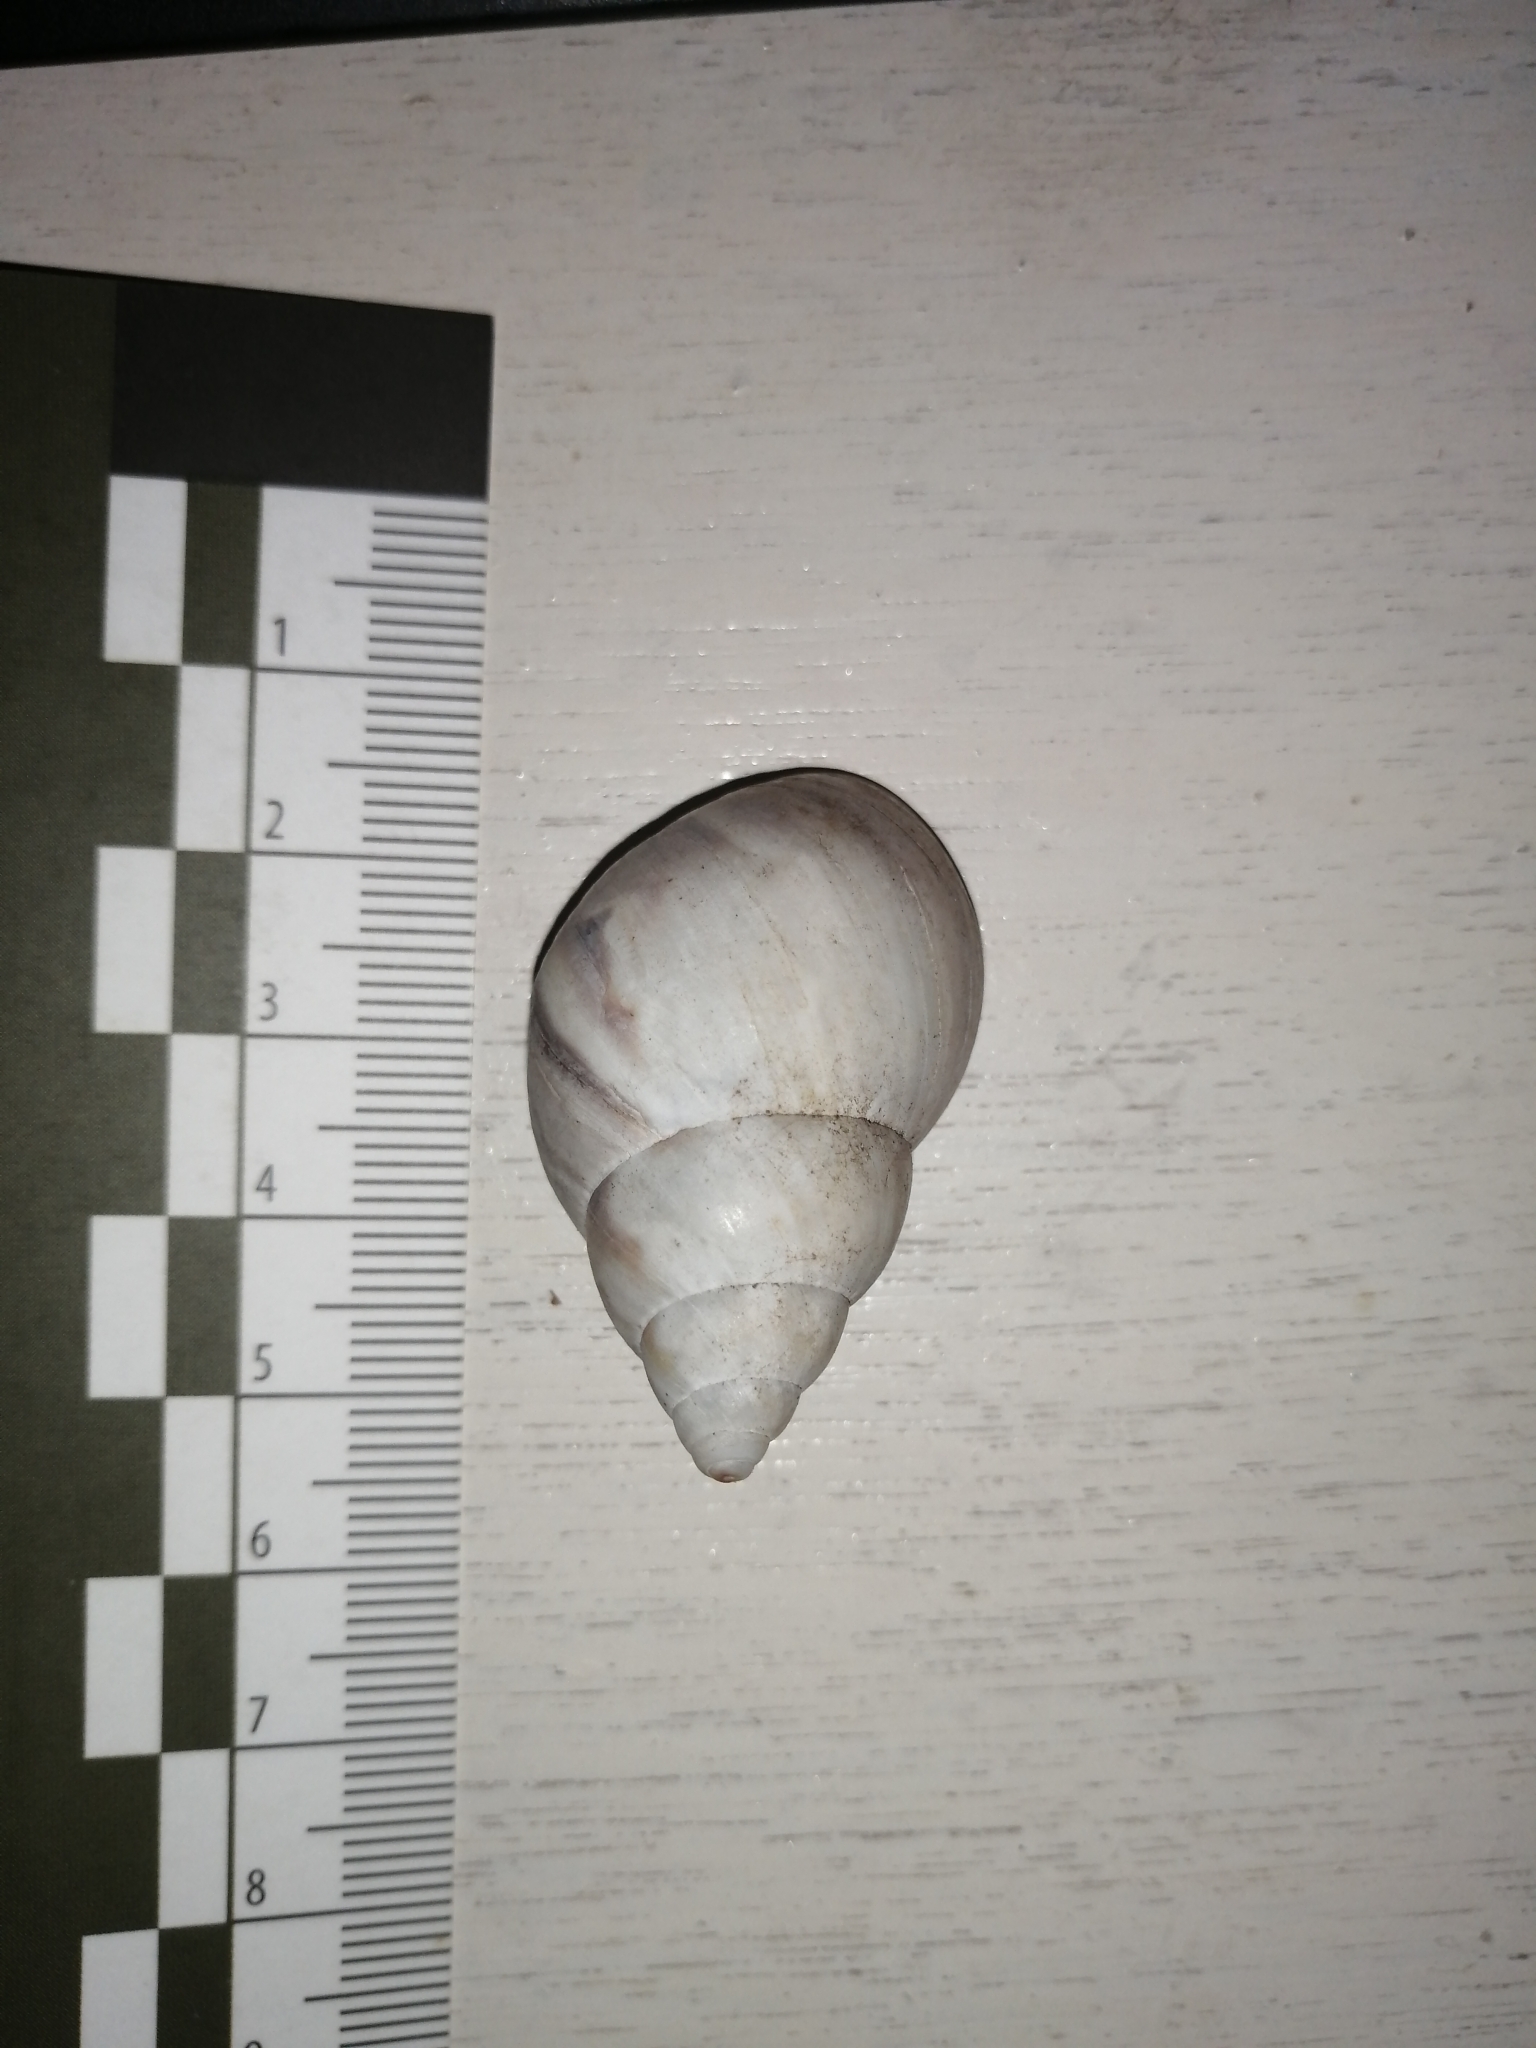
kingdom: Animalia
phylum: Mollusca
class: Gastropoda
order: Stylommatophora
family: Orthalicidae
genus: Orthalicus
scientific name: Orthalicus ferussaci
